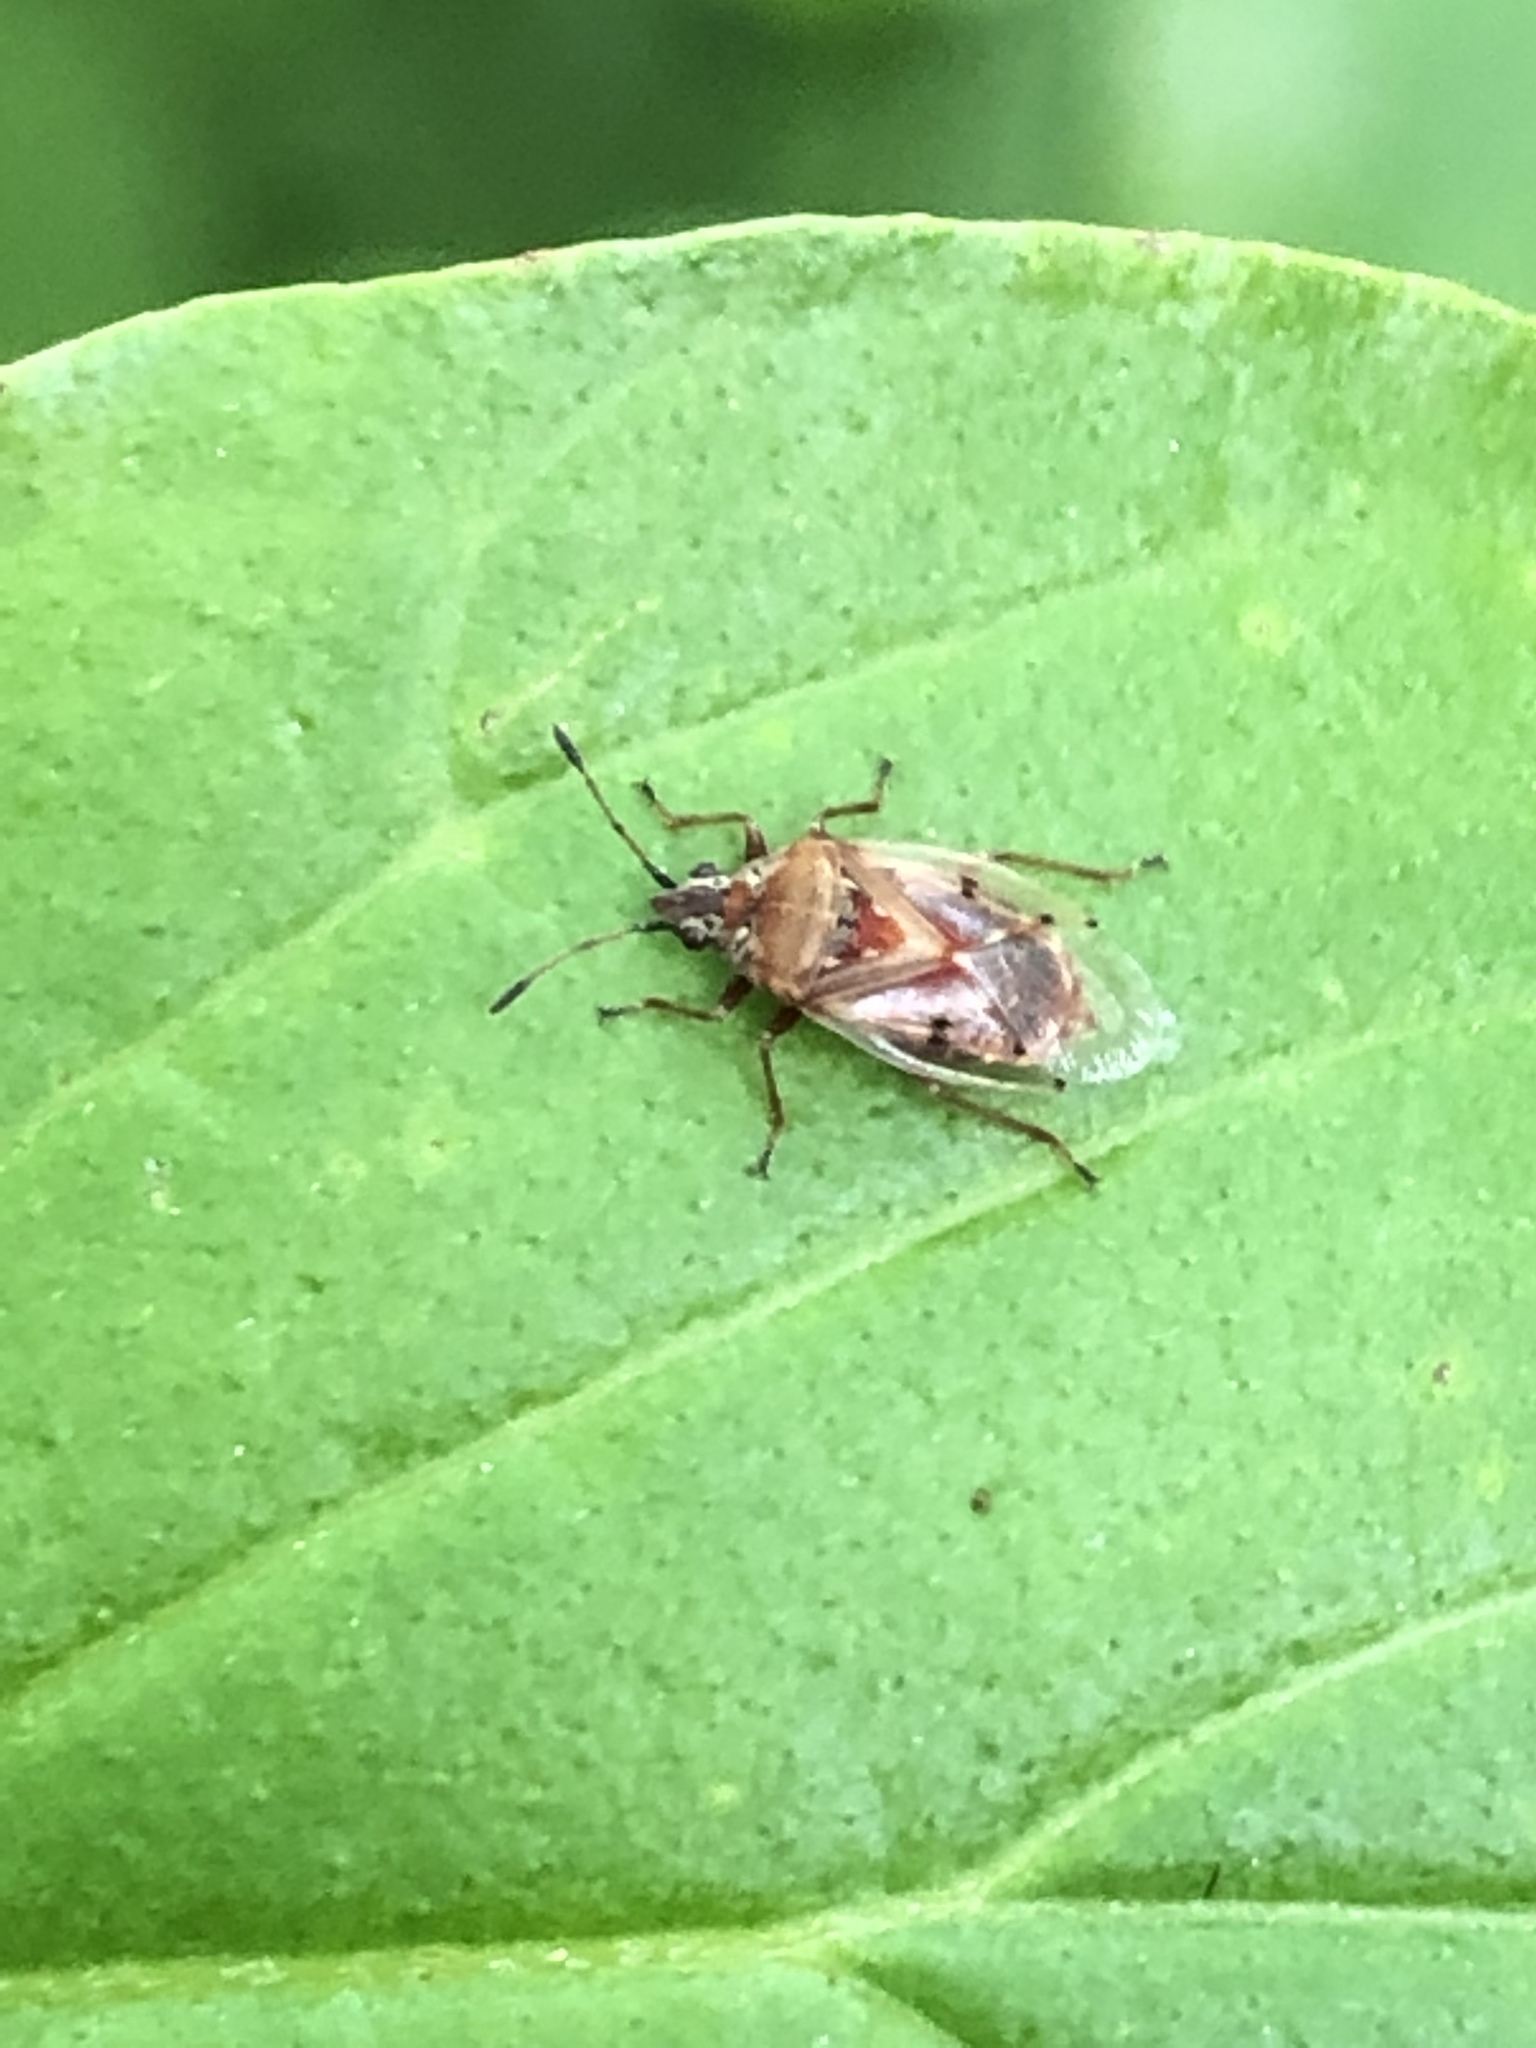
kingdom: Animalia
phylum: Arthropoda
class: Insecta
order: Hemiptera
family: Lygaeidae
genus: Kleidocerys
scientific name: Kleidocerys resedae
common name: Birch catkin bug
